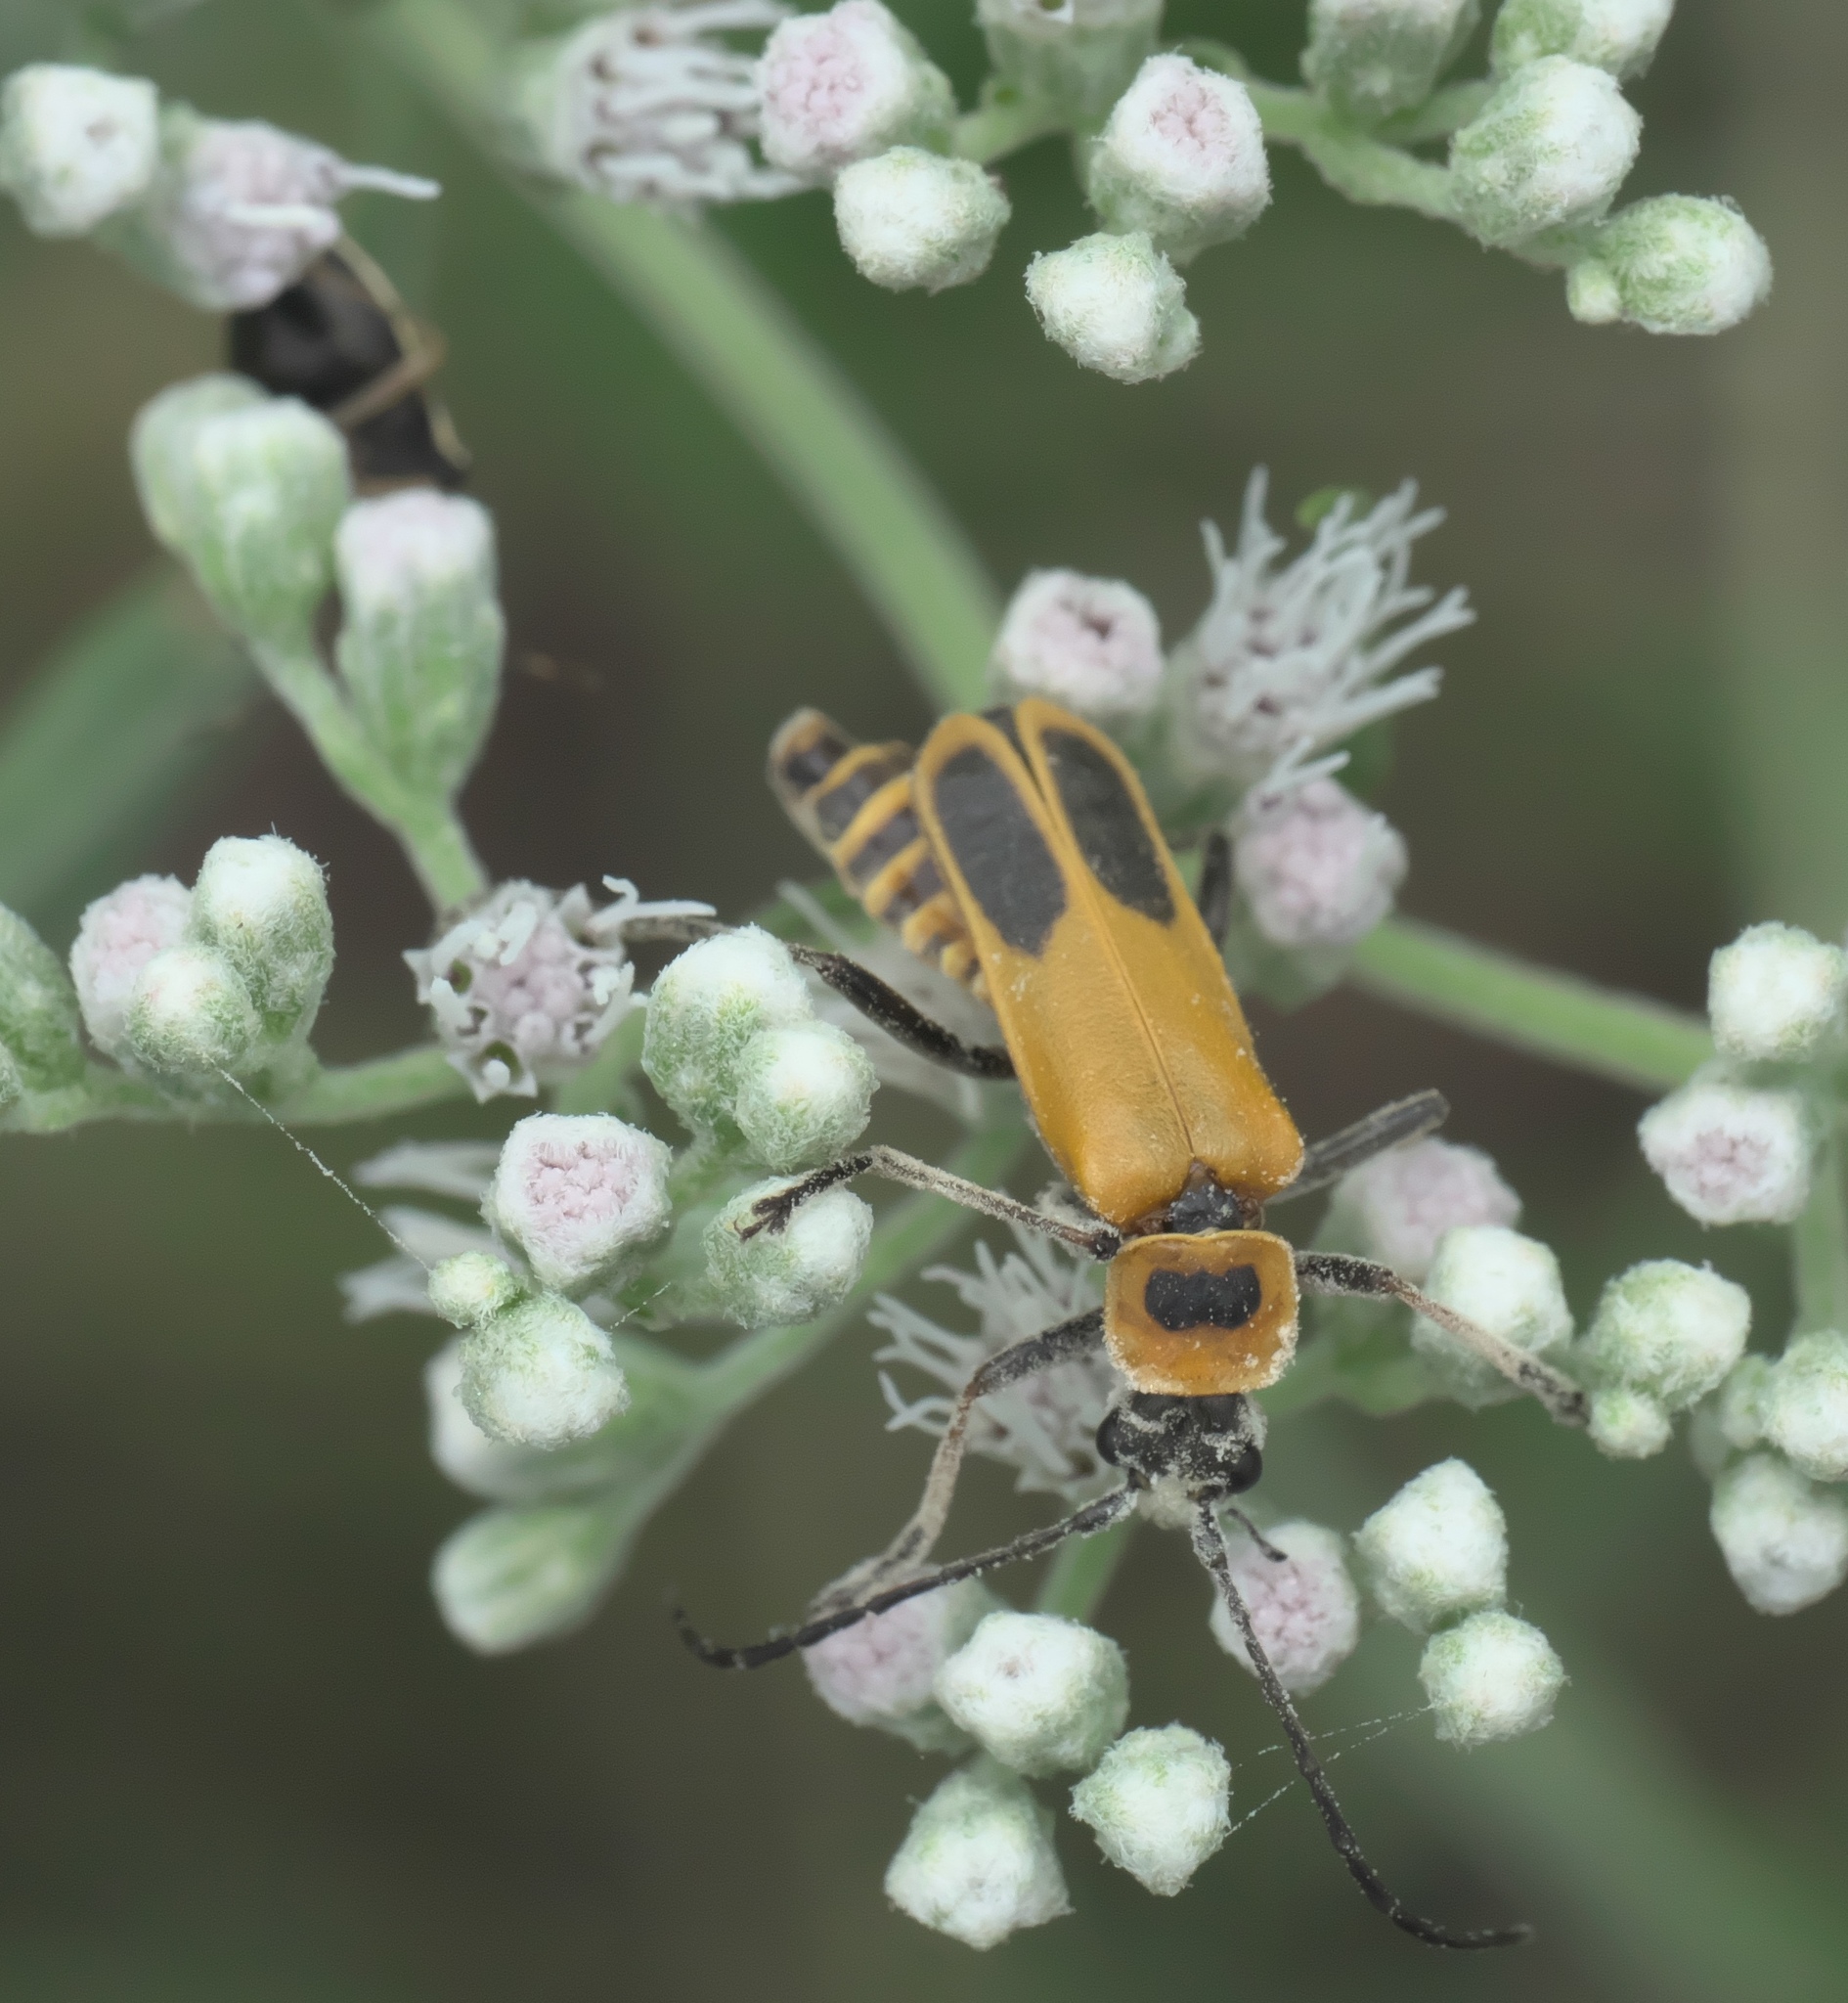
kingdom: Animalia
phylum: Arthropoda
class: Insecta
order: Coleoptera
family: Cantharidae
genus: Chauliognathus
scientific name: Chauliognathus pensylvanicus
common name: Goldenrod soldier beetle
